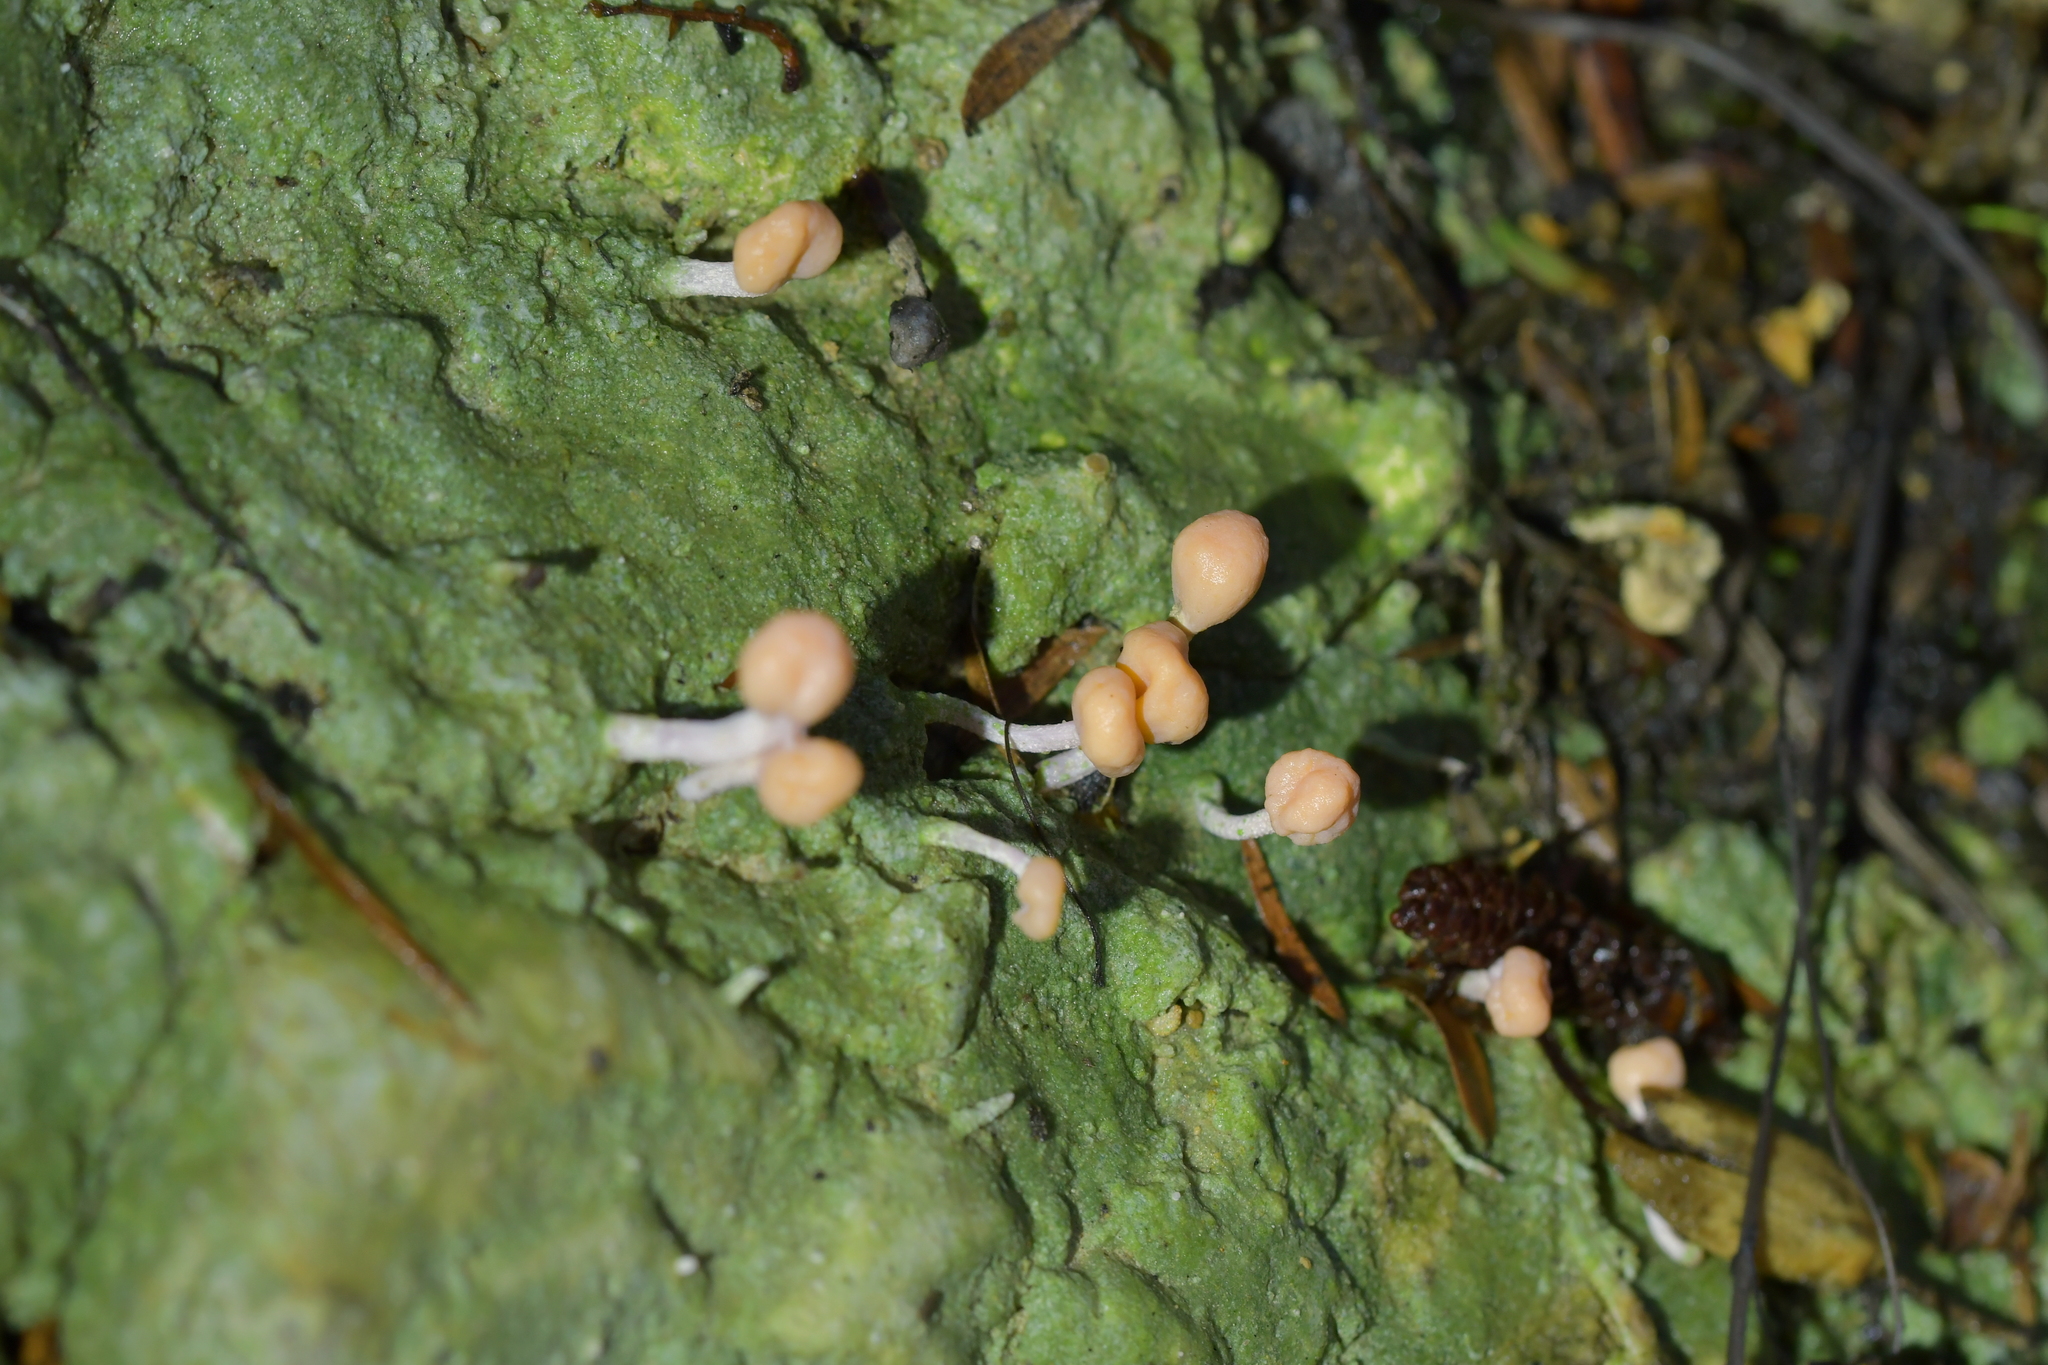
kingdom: Fungi
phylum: Ascomycota
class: Lecanoromycetes
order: Pertusariales
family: Icmadophilaceae
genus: Dibaeis
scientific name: Dibaeis arcuata
